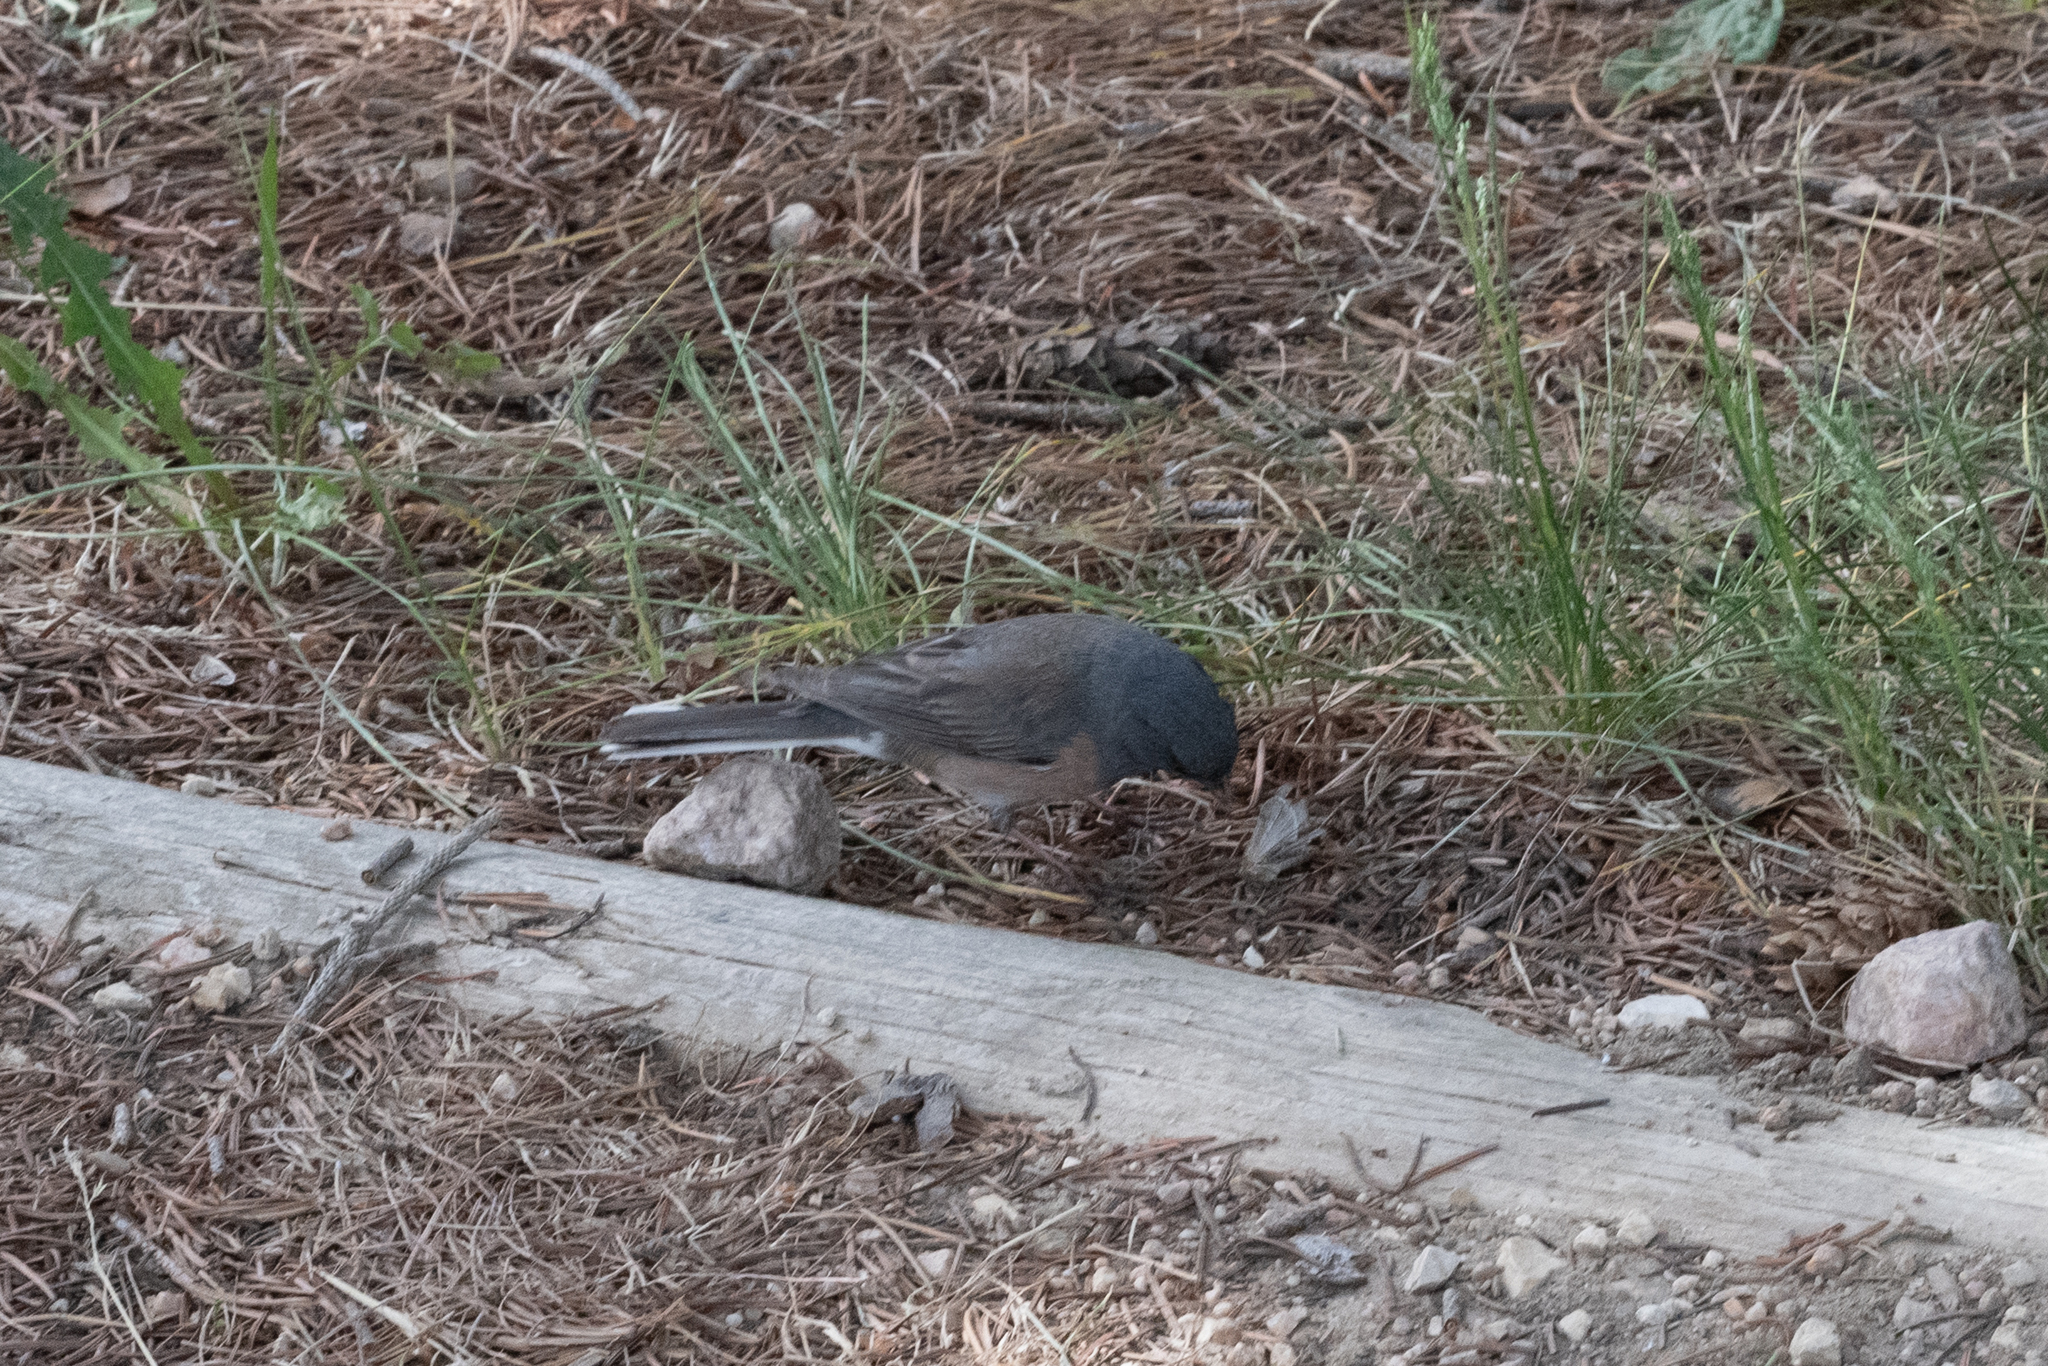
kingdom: Animalia
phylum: Chordata
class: Aves
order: Passeriformes
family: Passerellidae
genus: Junco
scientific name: Junco hyemalis
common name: Dark-eyed junco
